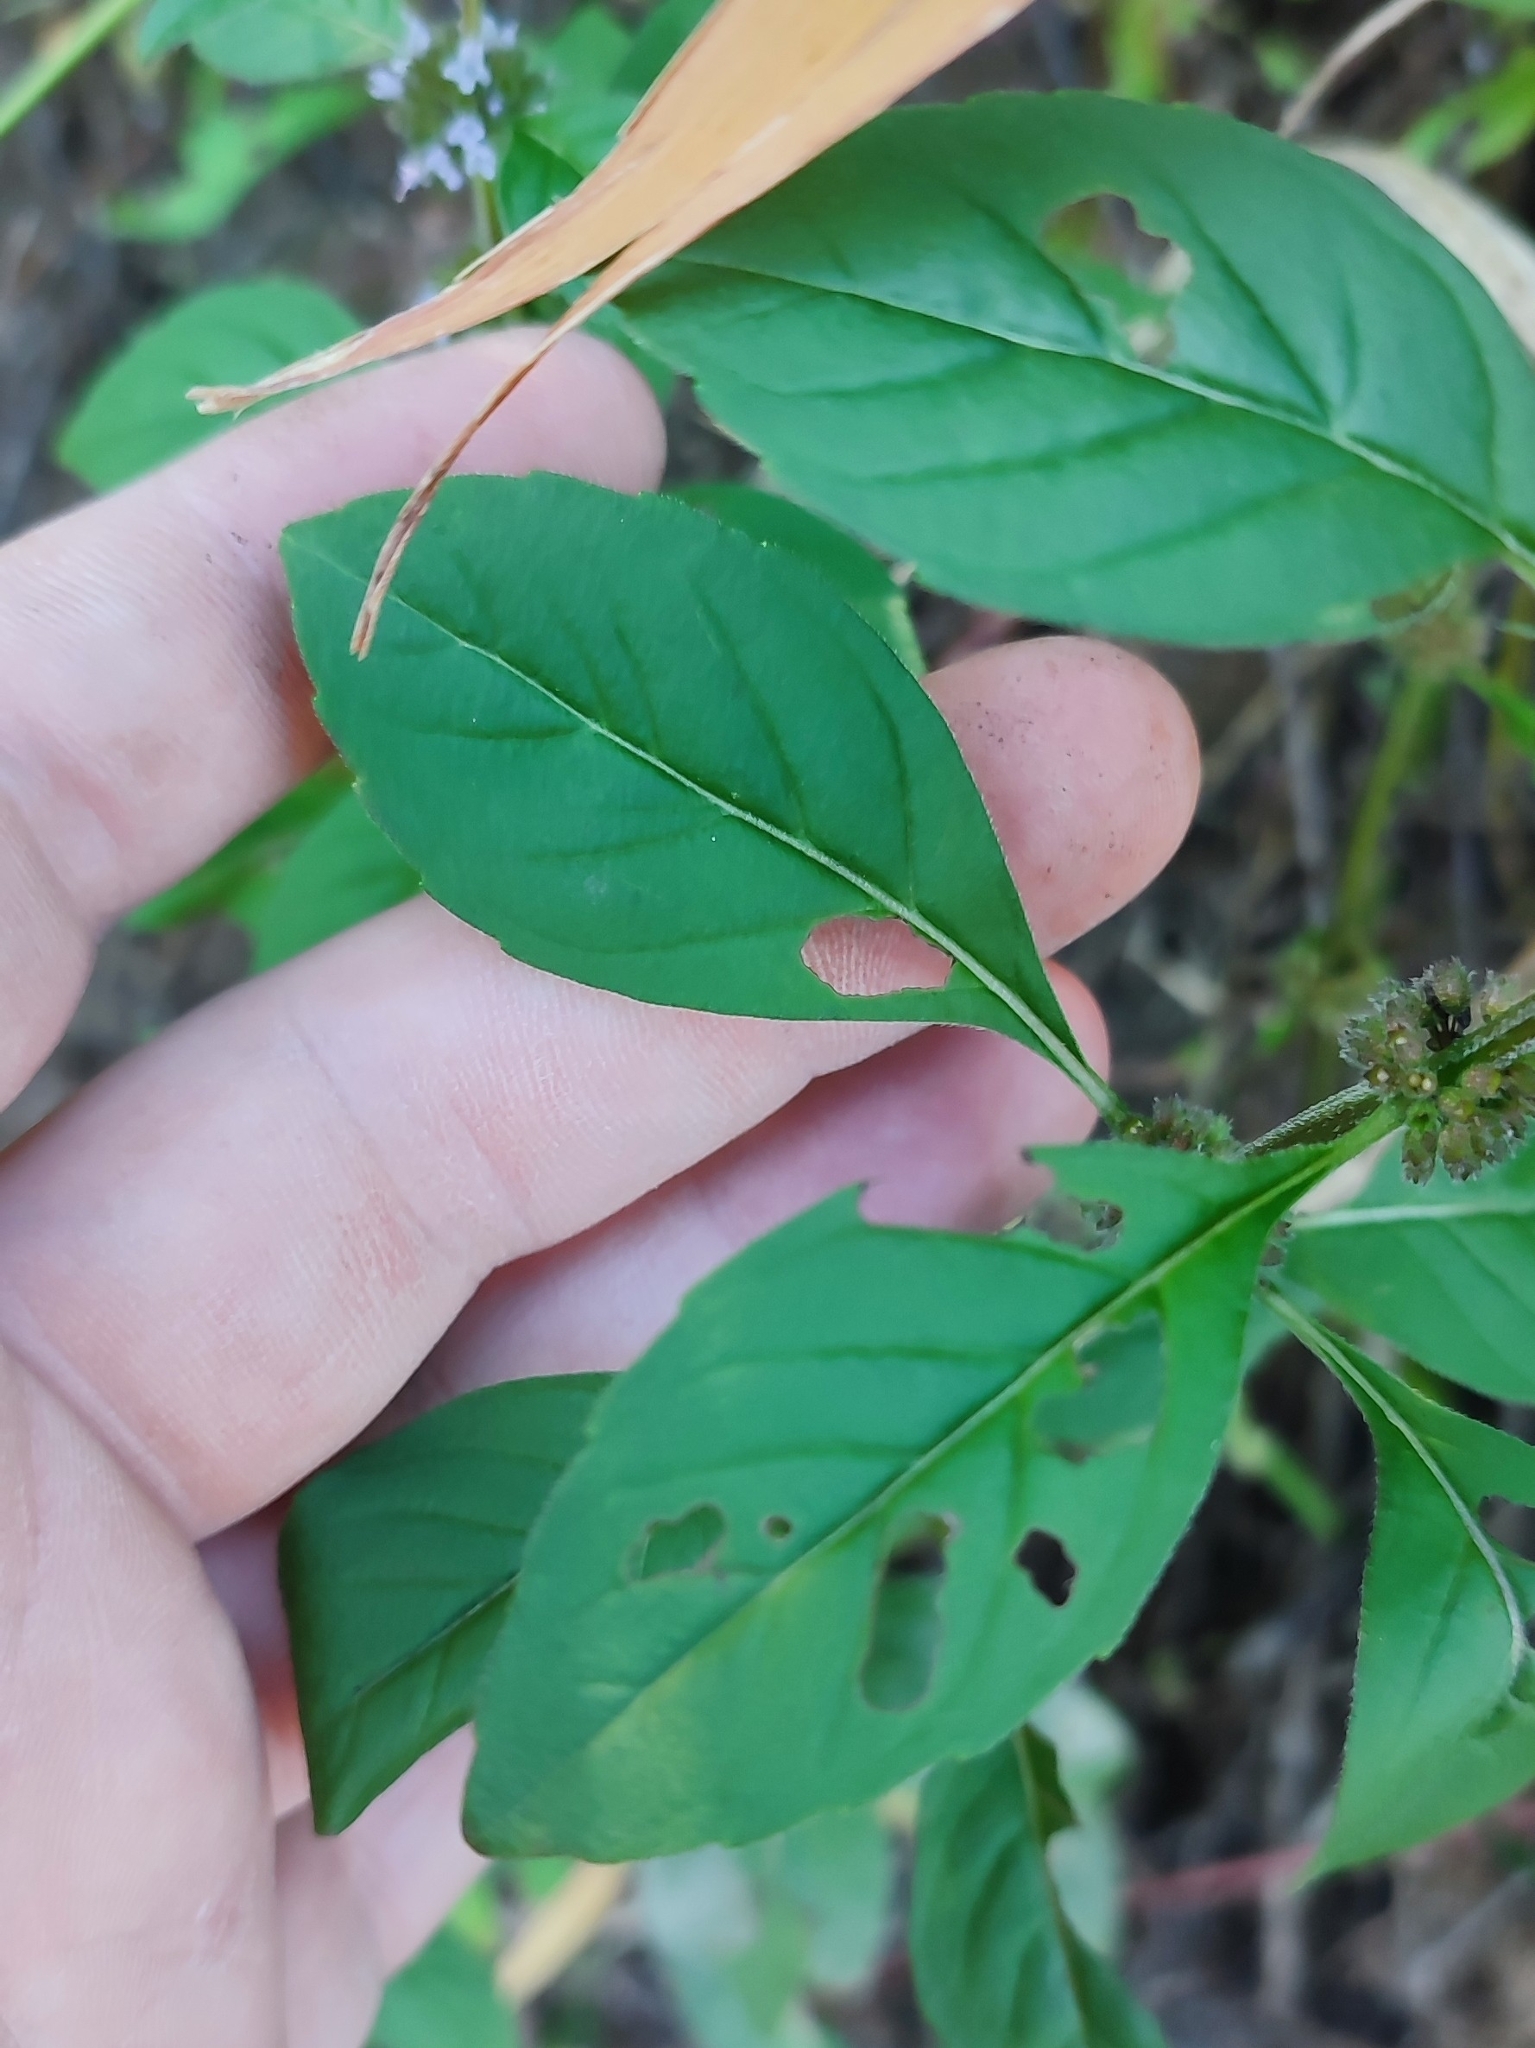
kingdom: Plantae
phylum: Tracheophyta
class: Magnoliopsida
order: Lamiales
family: Lamiaceae
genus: Mentha
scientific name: Mentha arvensis
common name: Corn mint
